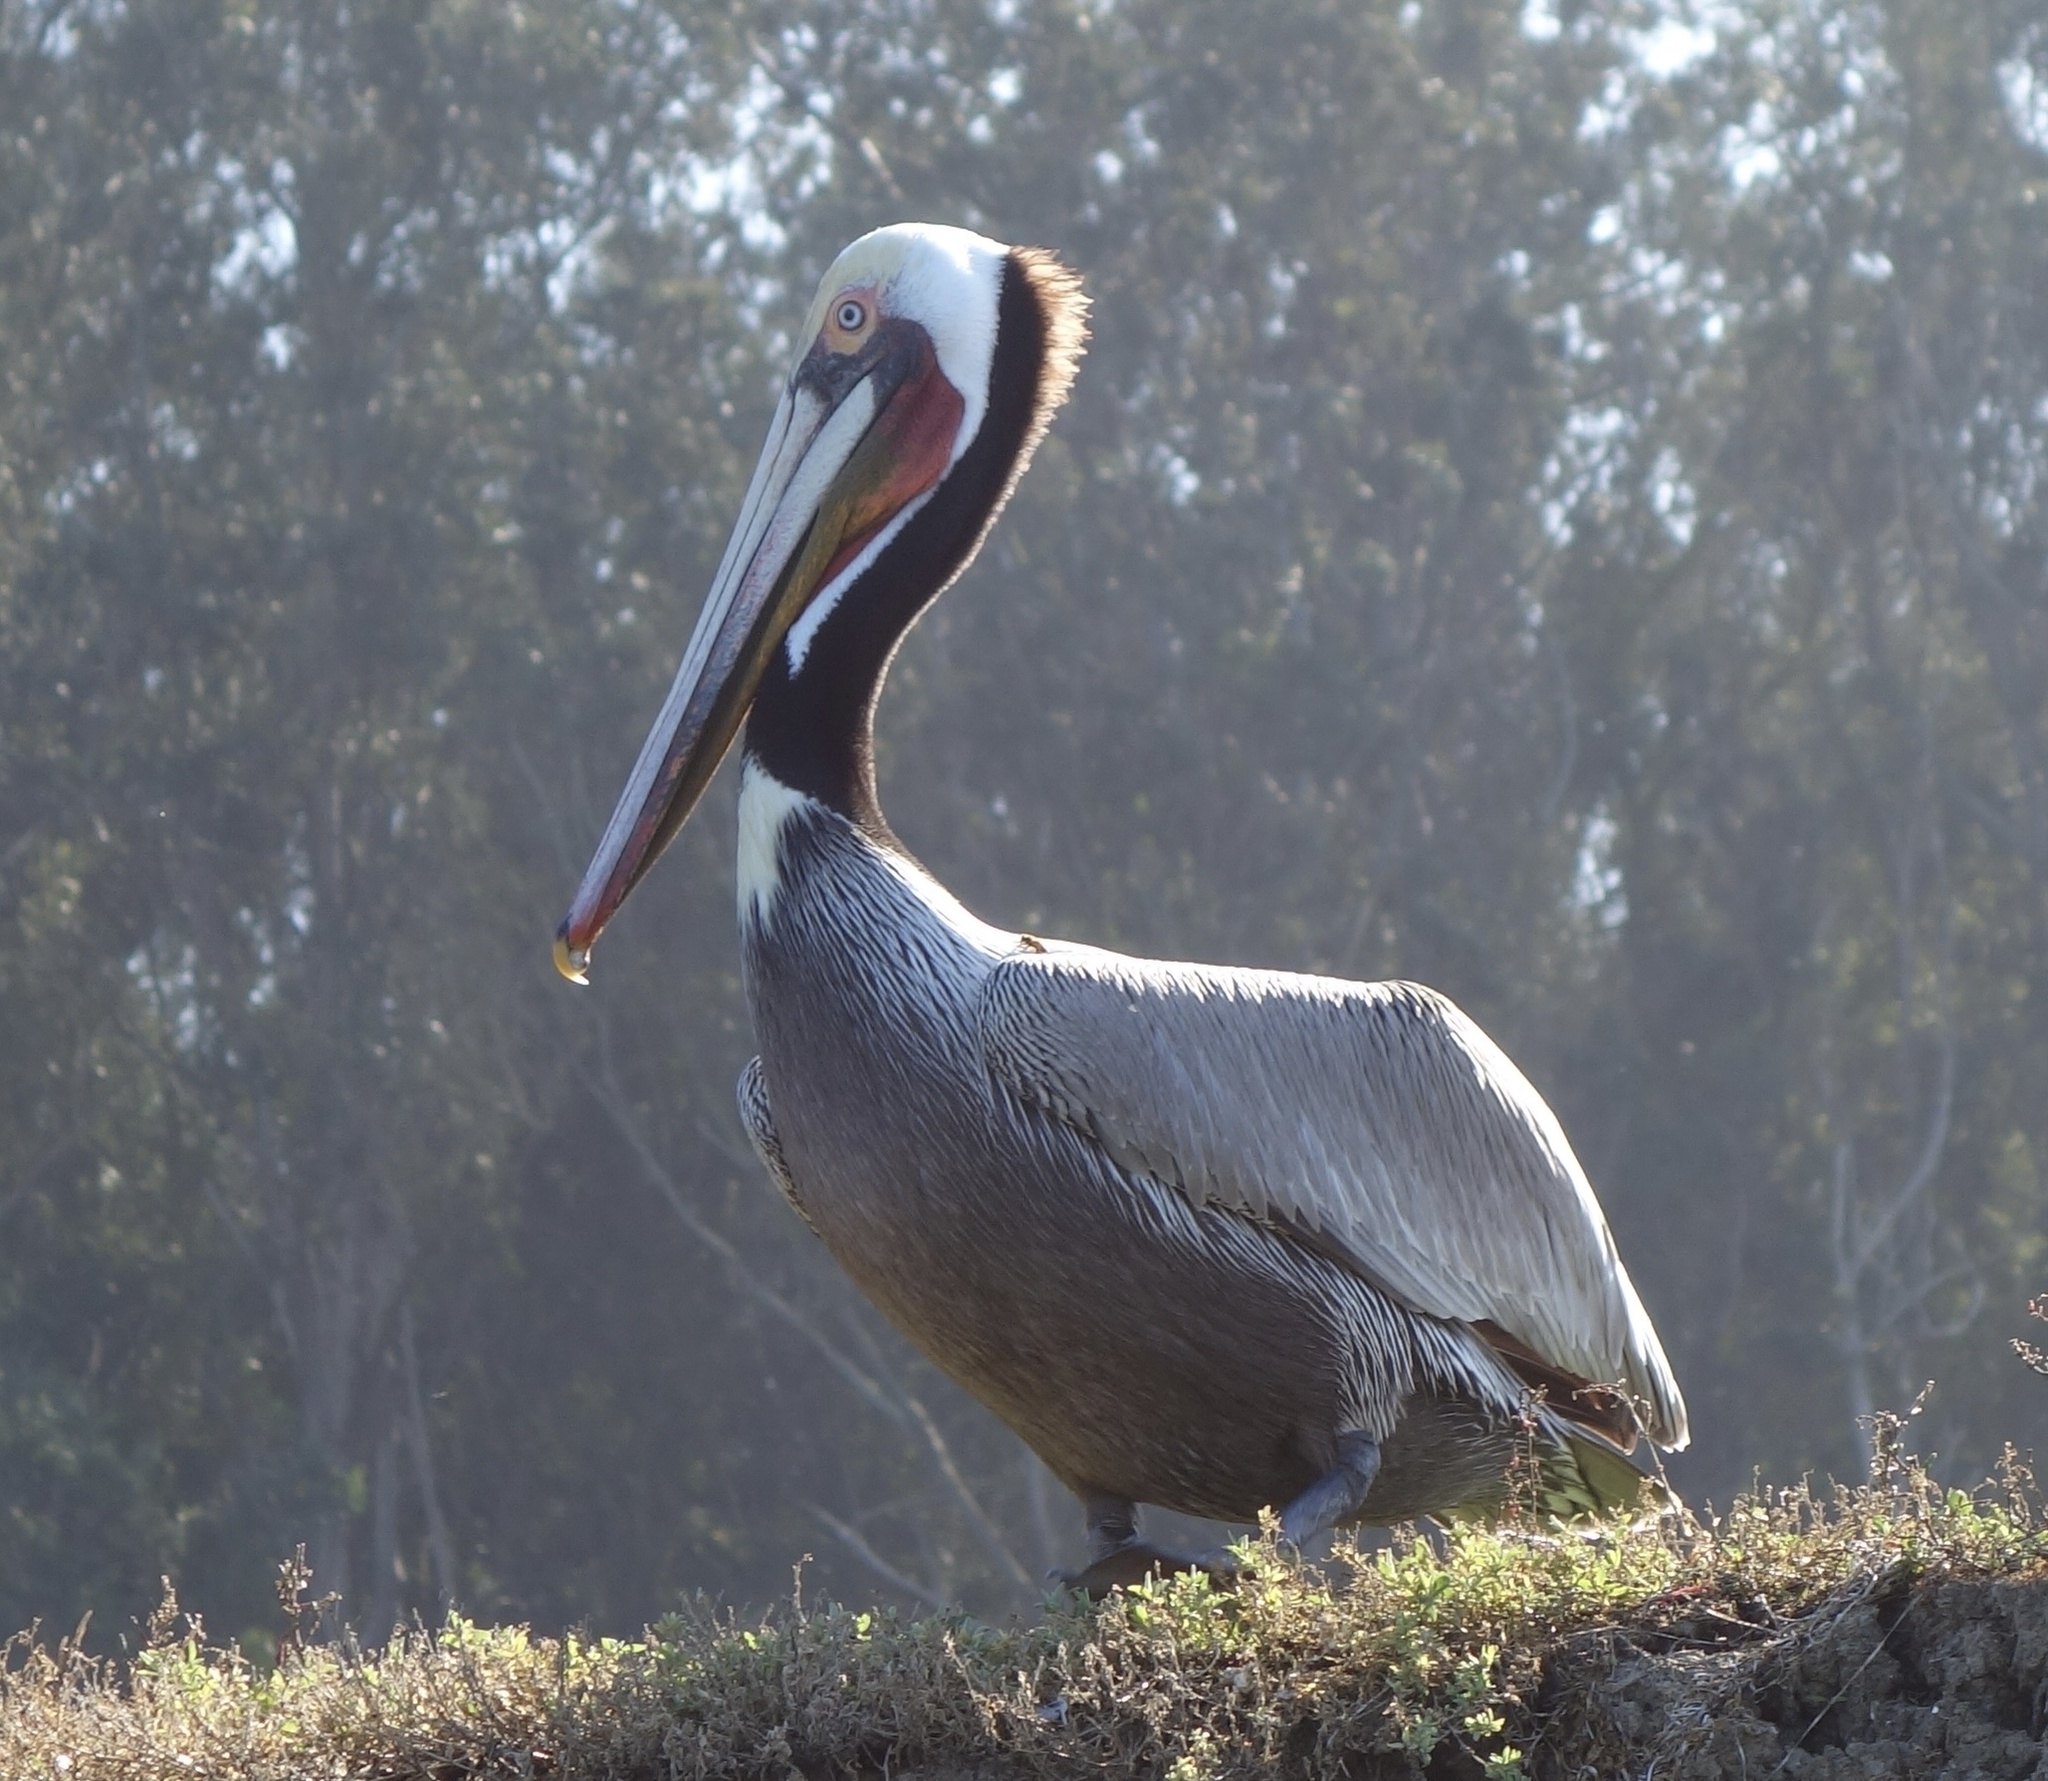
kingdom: Animalia
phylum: Chordata
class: Aves
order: Pelecaniformes
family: Pelecanidae
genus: Pelecanus
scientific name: Pelecanus occidentalis
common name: Brown pelican
